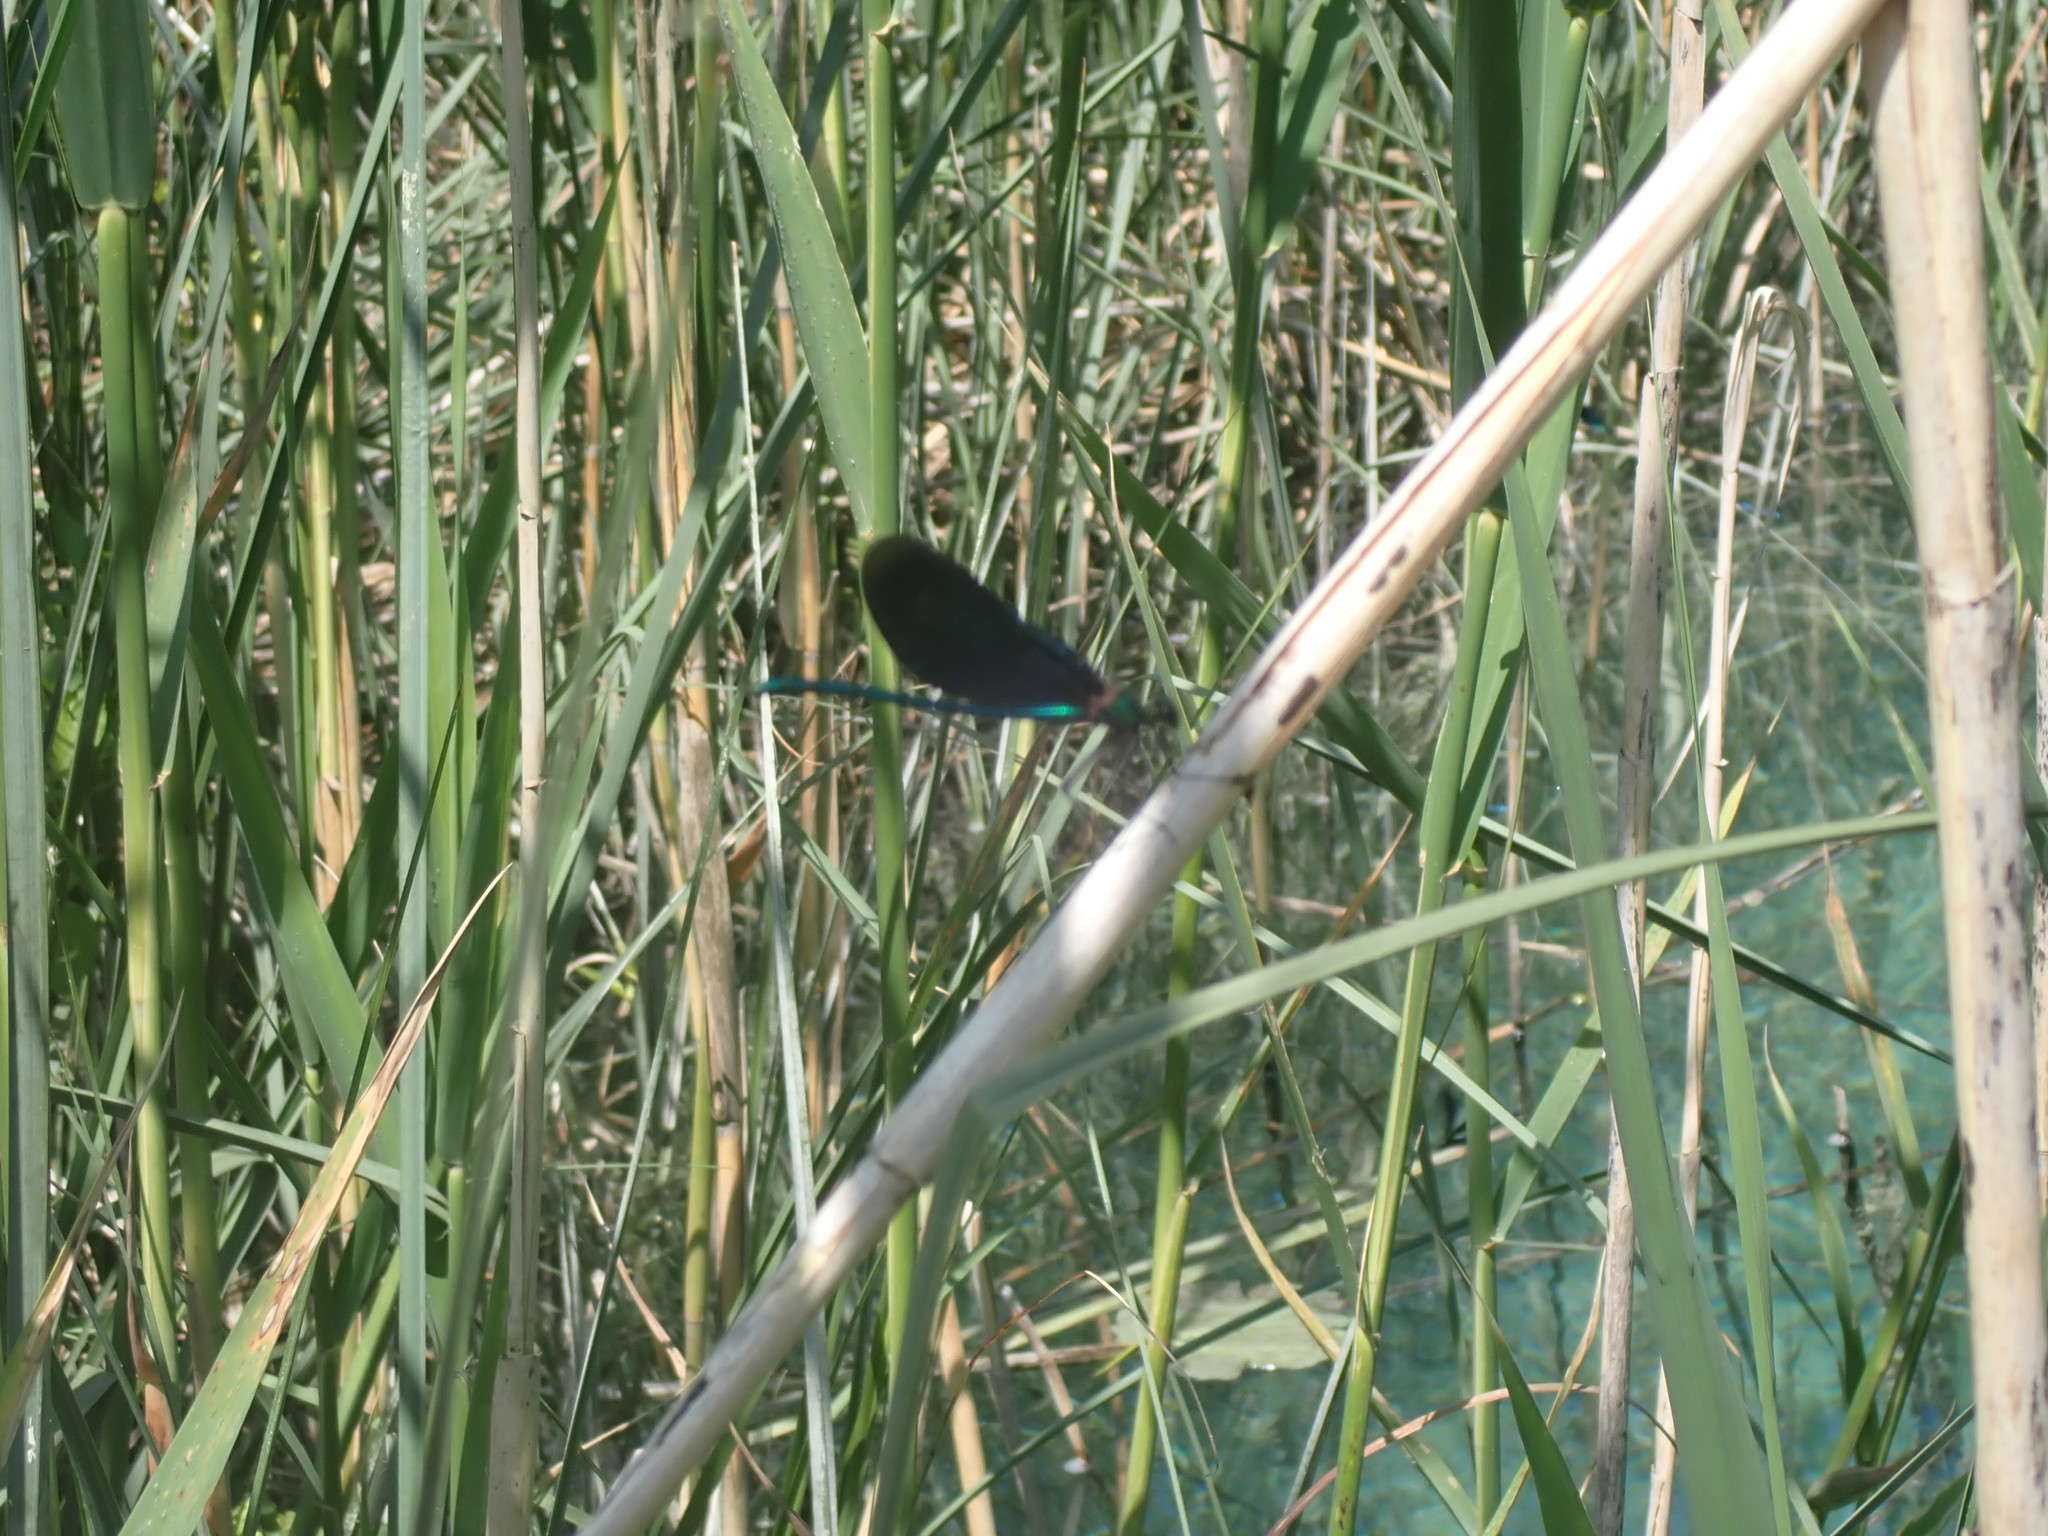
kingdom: Animalia
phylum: Arthropoda
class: Insecta
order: Odonata
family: Calopterygidae
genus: Calopteryx
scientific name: Calopteryx virgo
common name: Beautiful demoiselle
